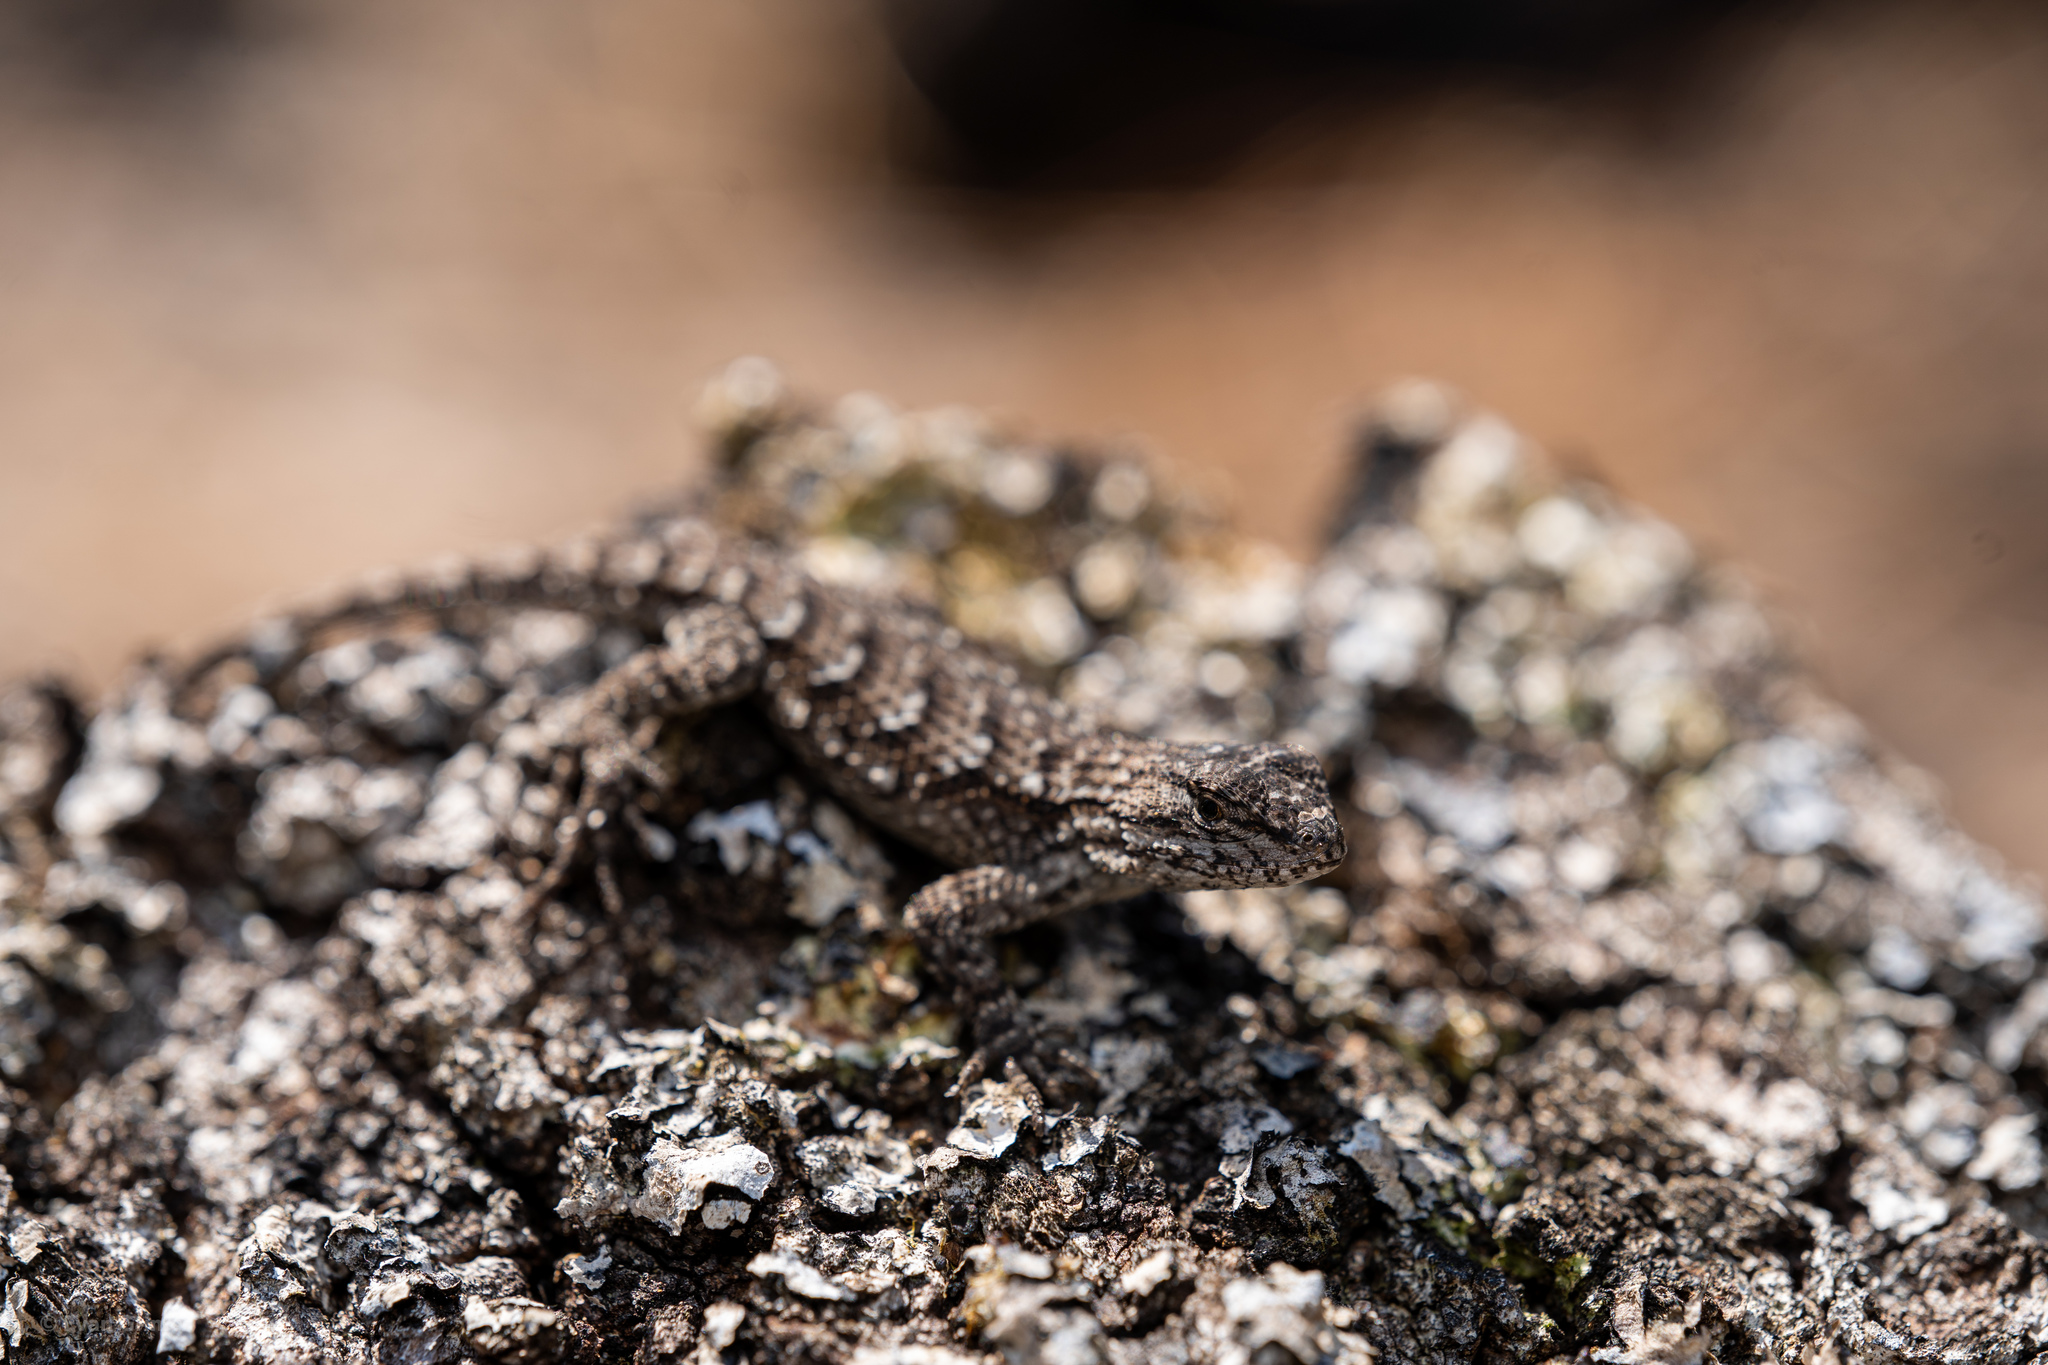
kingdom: Animalia
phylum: Chordata
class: Squamata
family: Phrynosomatidae
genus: Sceloporus
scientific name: Sceloporus undulatus
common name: Eastern fence lizard
